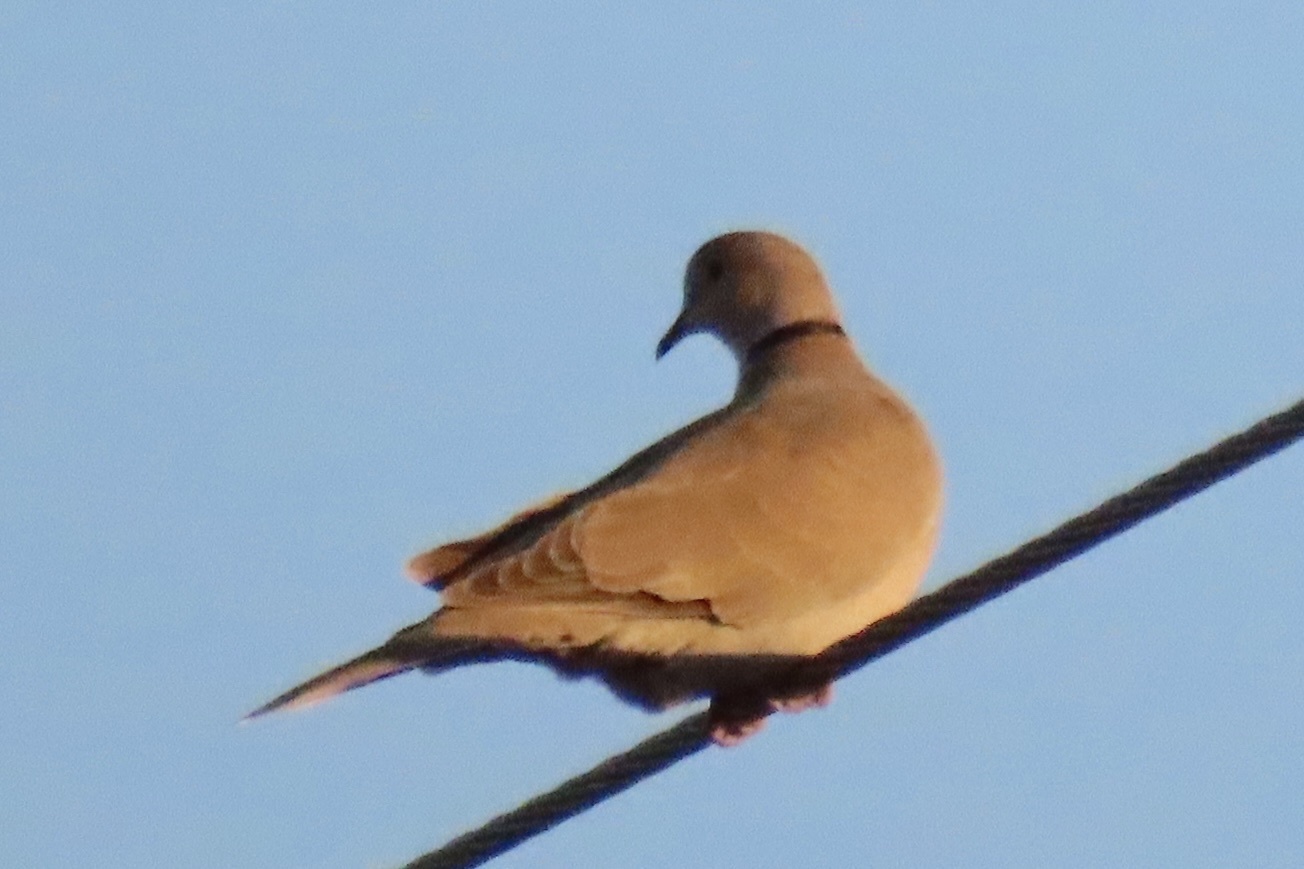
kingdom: Animalia
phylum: Chordata
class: Aves
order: Columbiformes
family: Columbidae
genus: Streptopelia
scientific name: Streptopelia decaocto
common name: Eurasian collared dove
